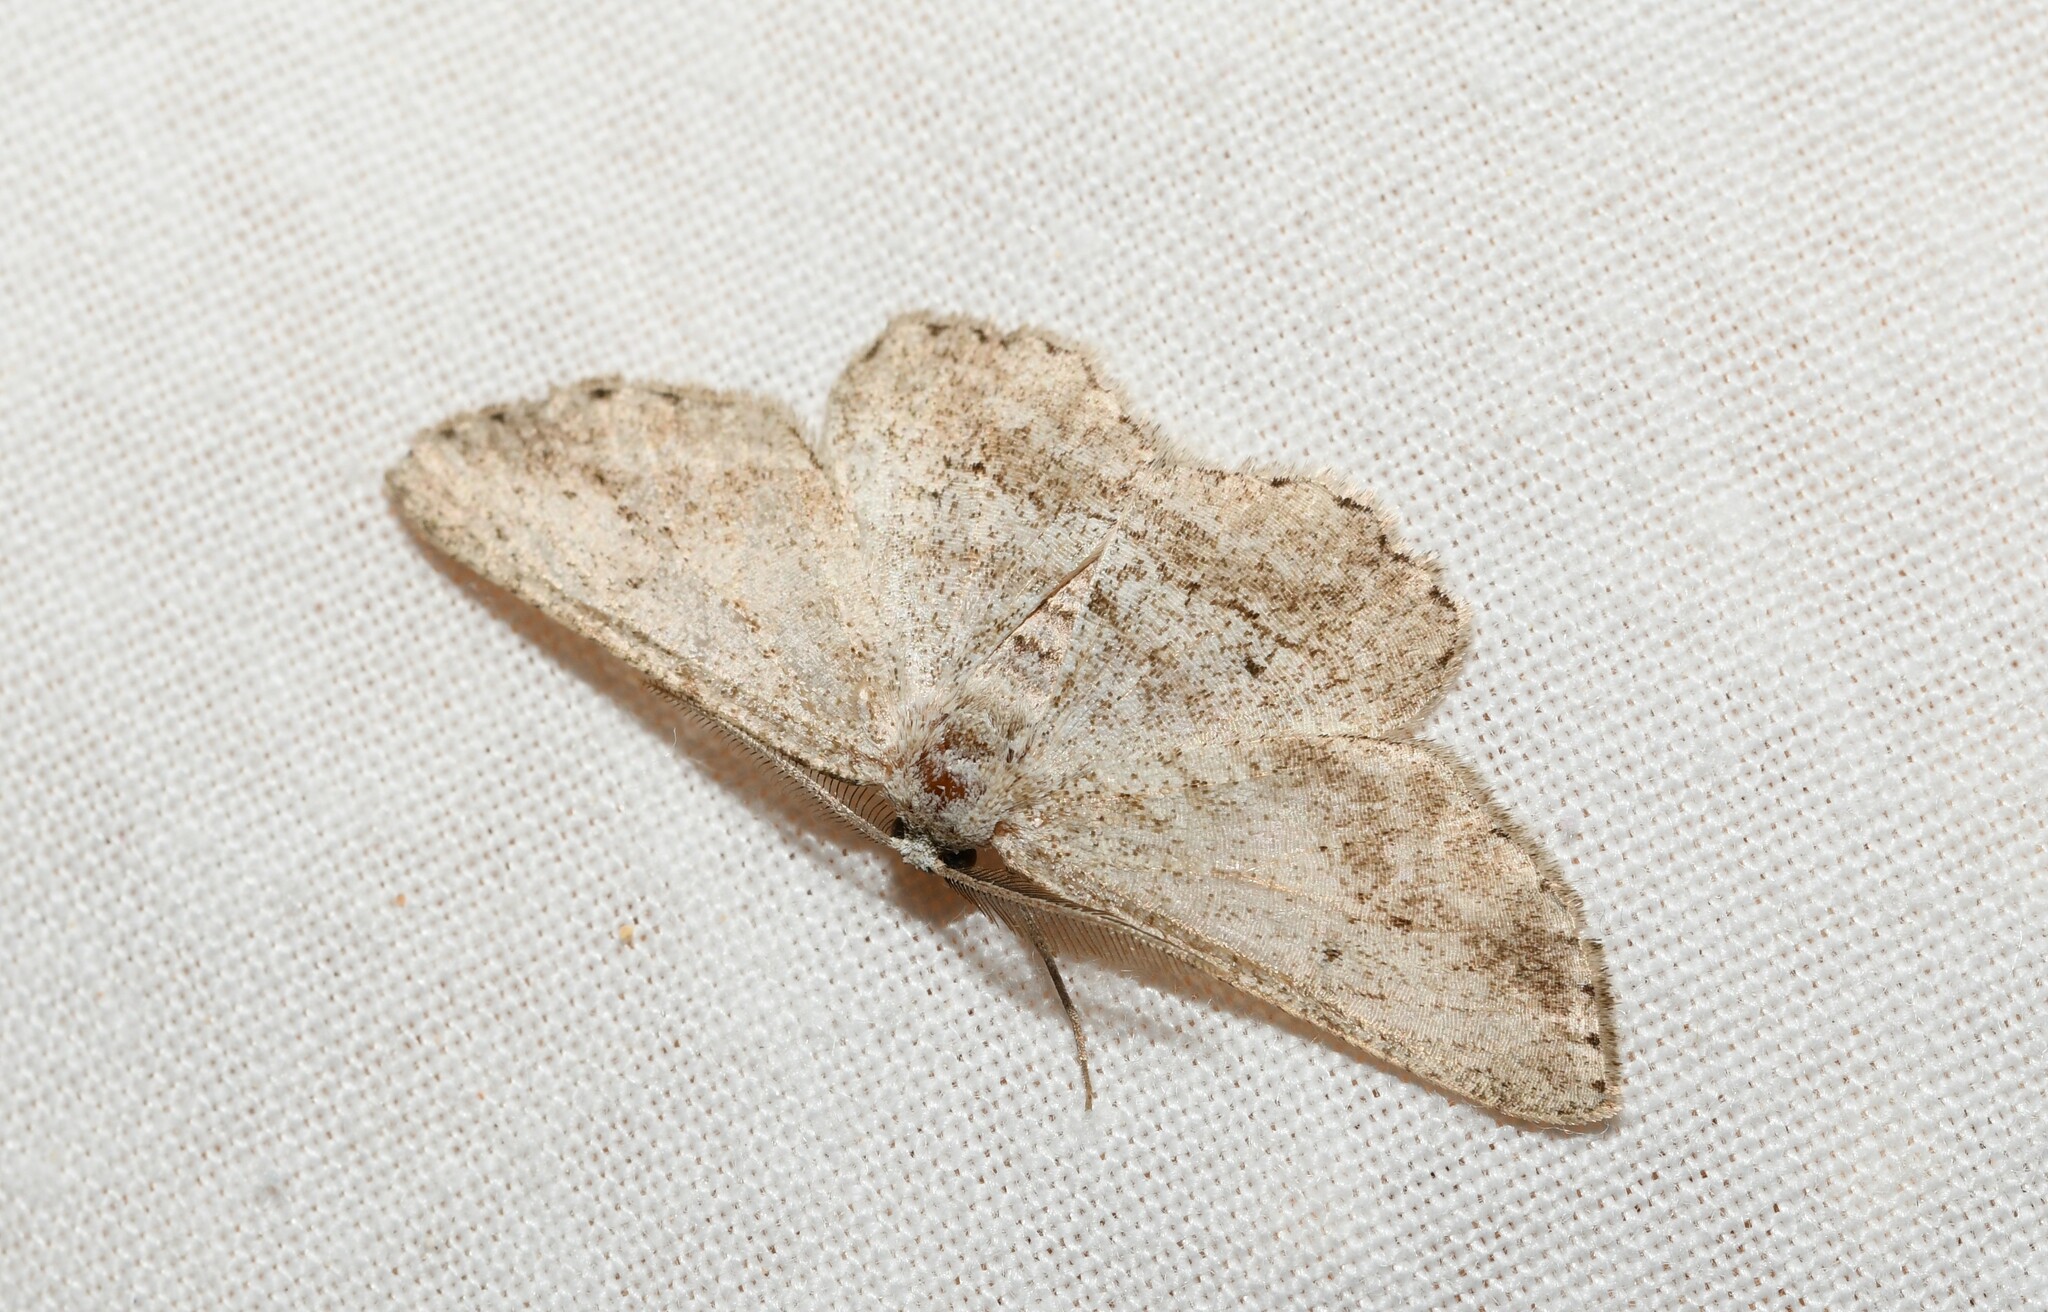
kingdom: Animalia
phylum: Arthropoda
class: Insecta
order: Lepidoptera
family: Geometridae
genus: Afriberina
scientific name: Afriberina
